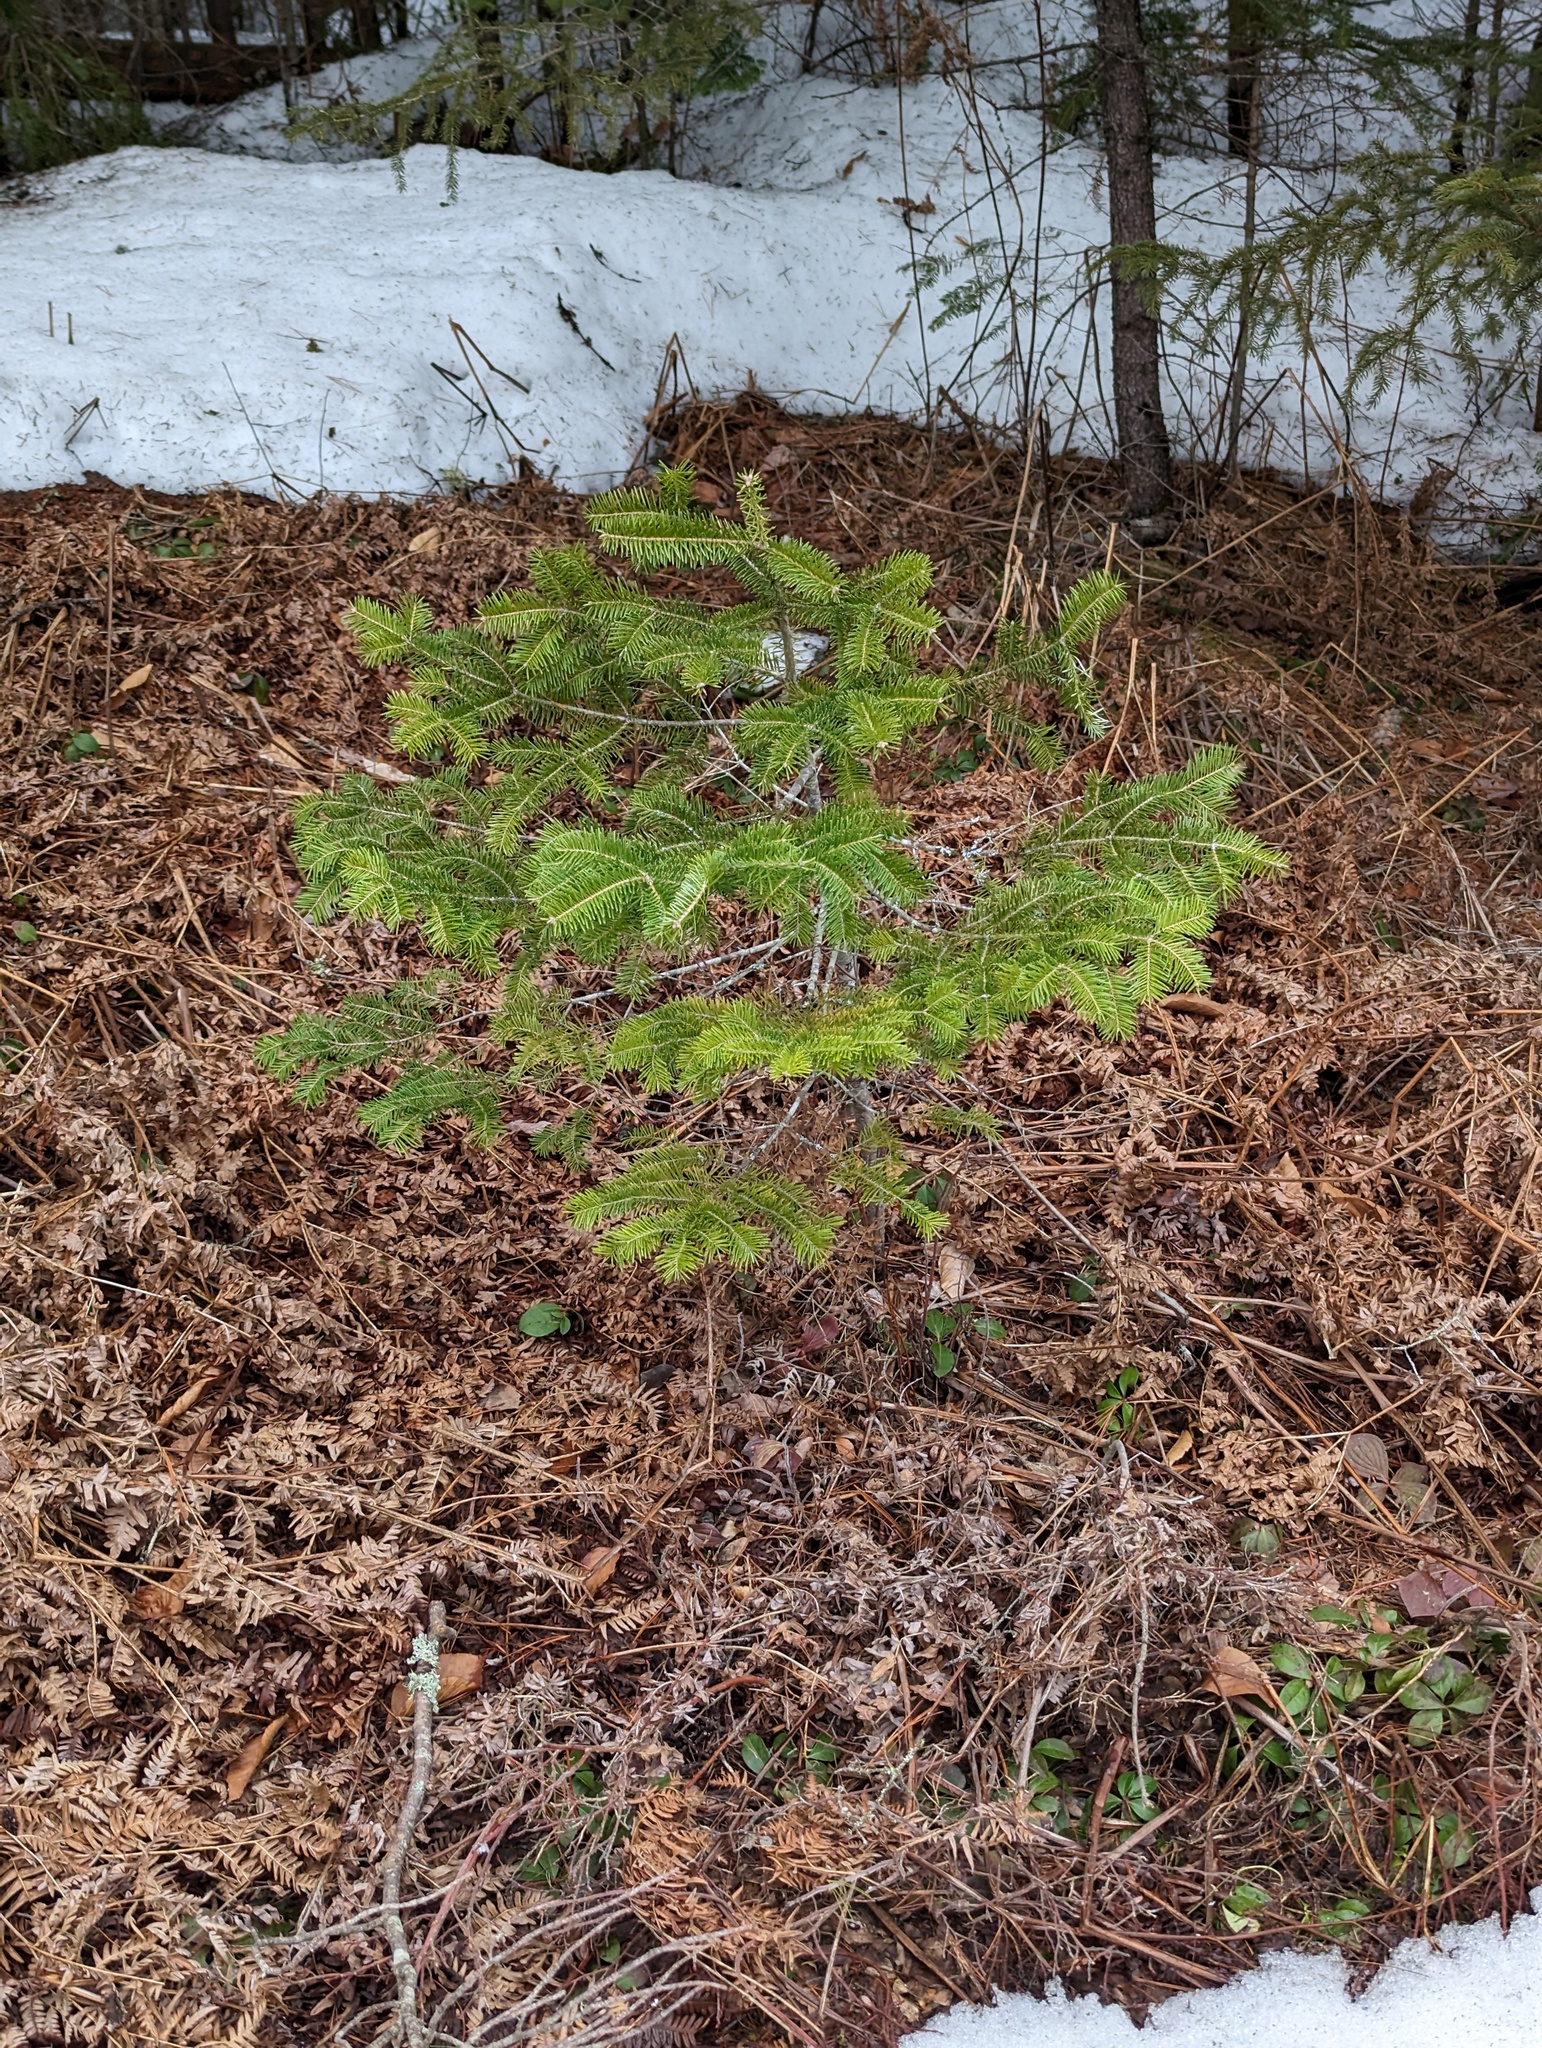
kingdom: Plantae
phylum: Tracheophyta
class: Pinopsida
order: Pinales
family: Pinaceae
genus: Abies
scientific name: Abies balsamea
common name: Balsam fir
